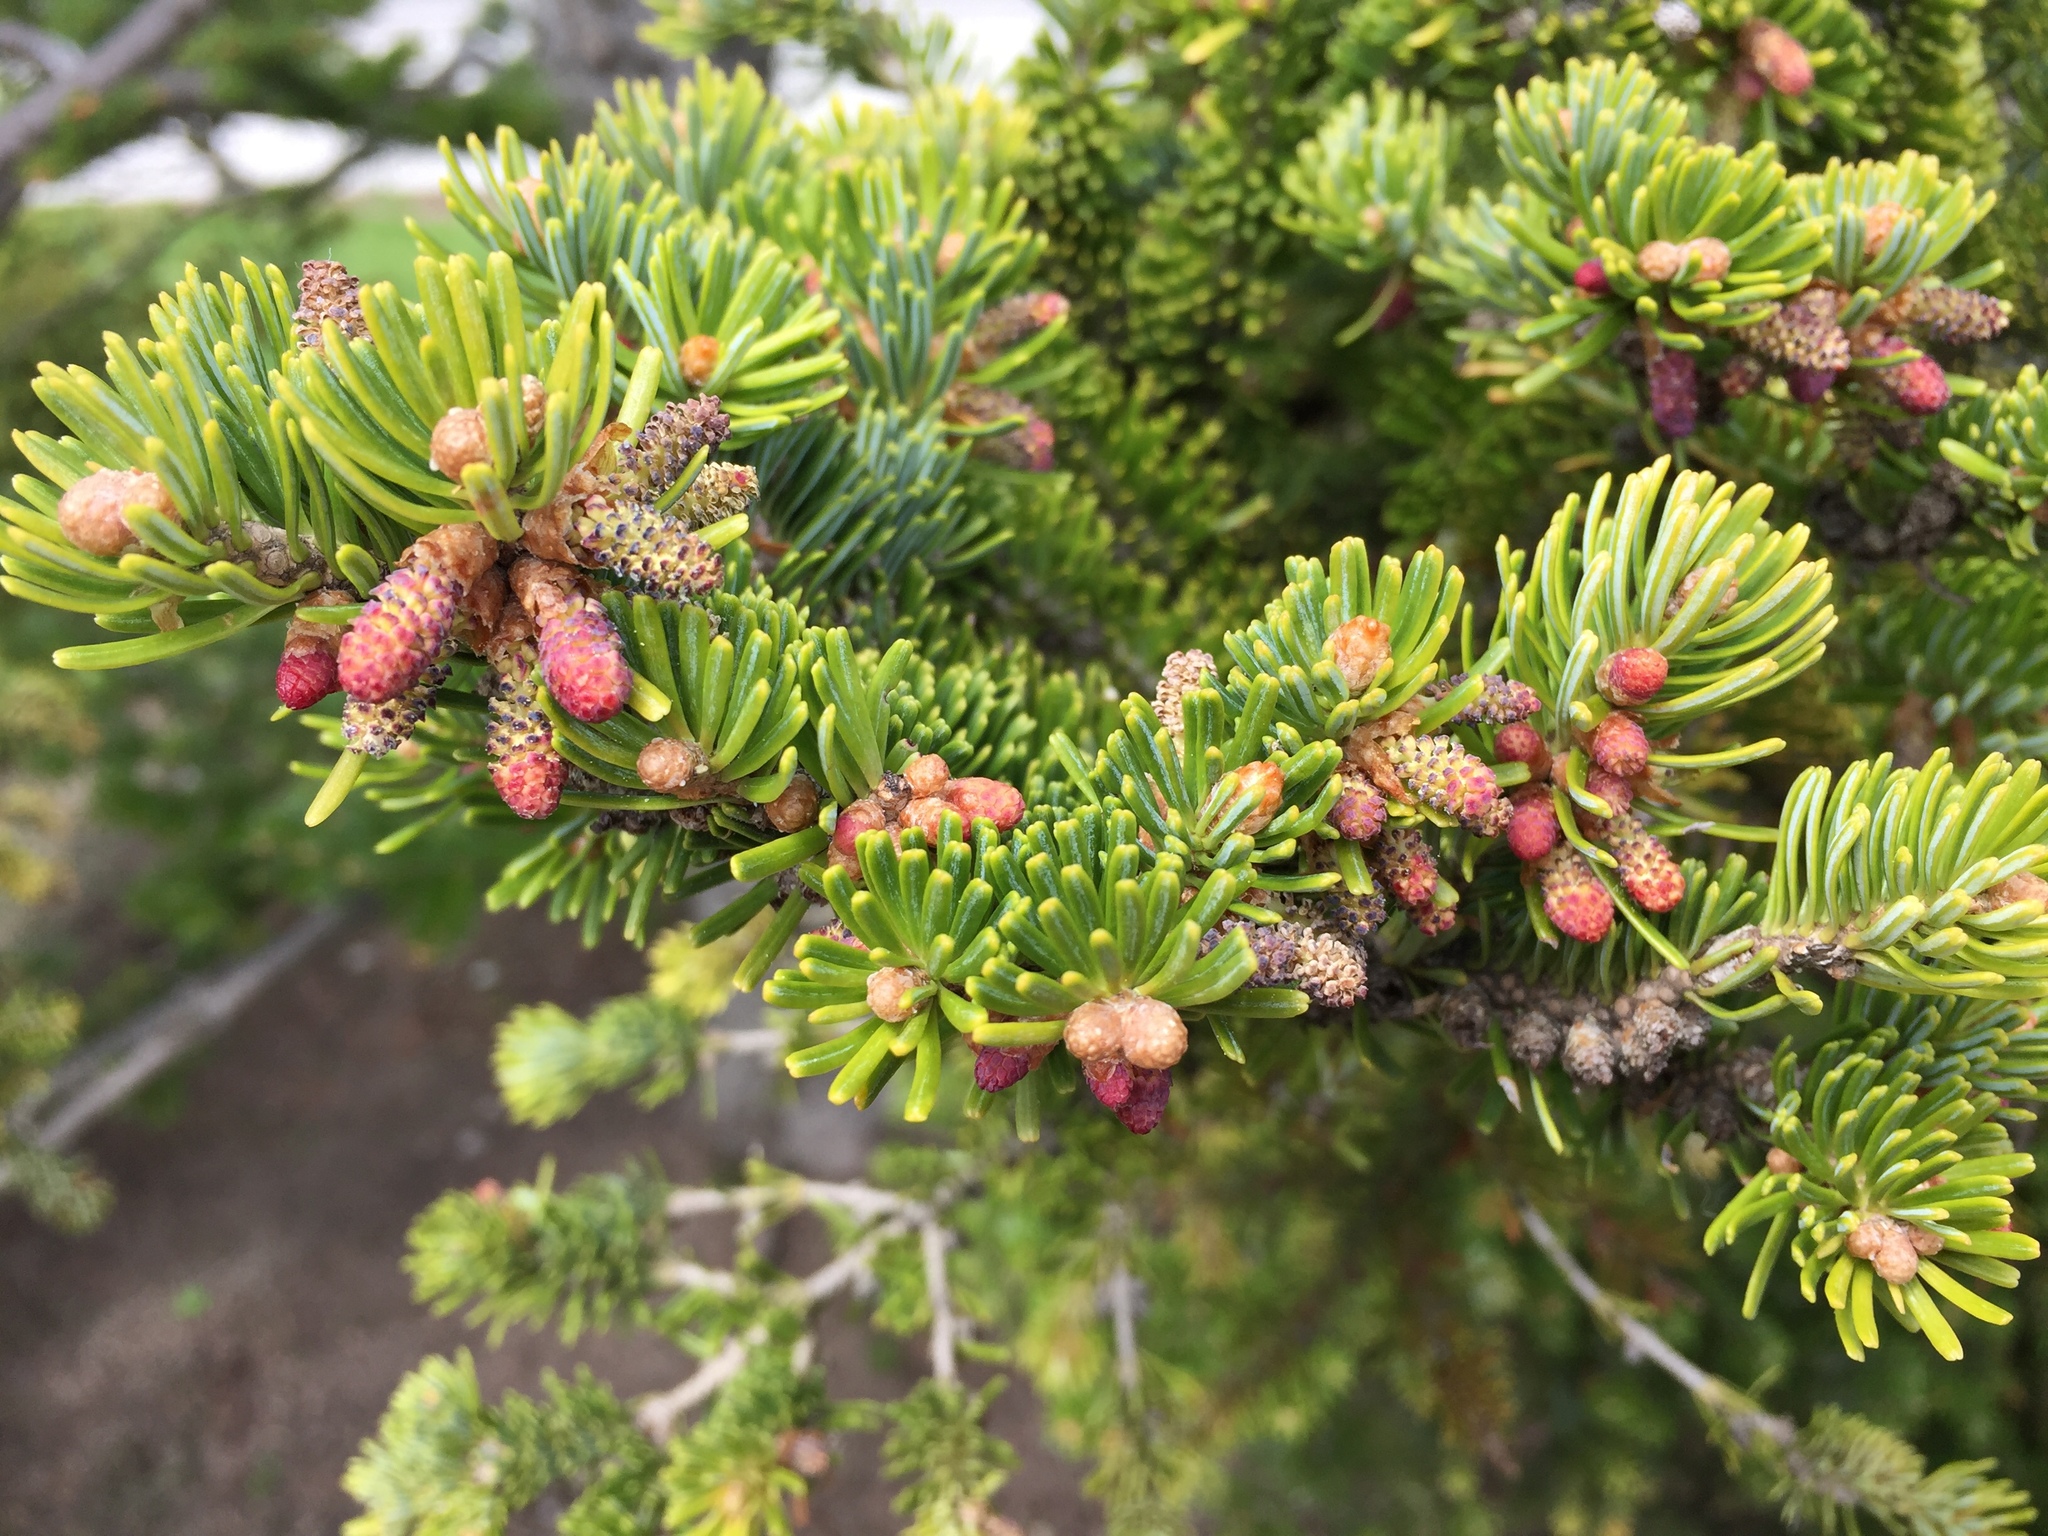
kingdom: Plantae
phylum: Tracheophyta
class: Pinopsida
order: Pinales
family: Pinaceae
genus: Abies
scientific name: Abies balsamea
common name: Balsam fir
